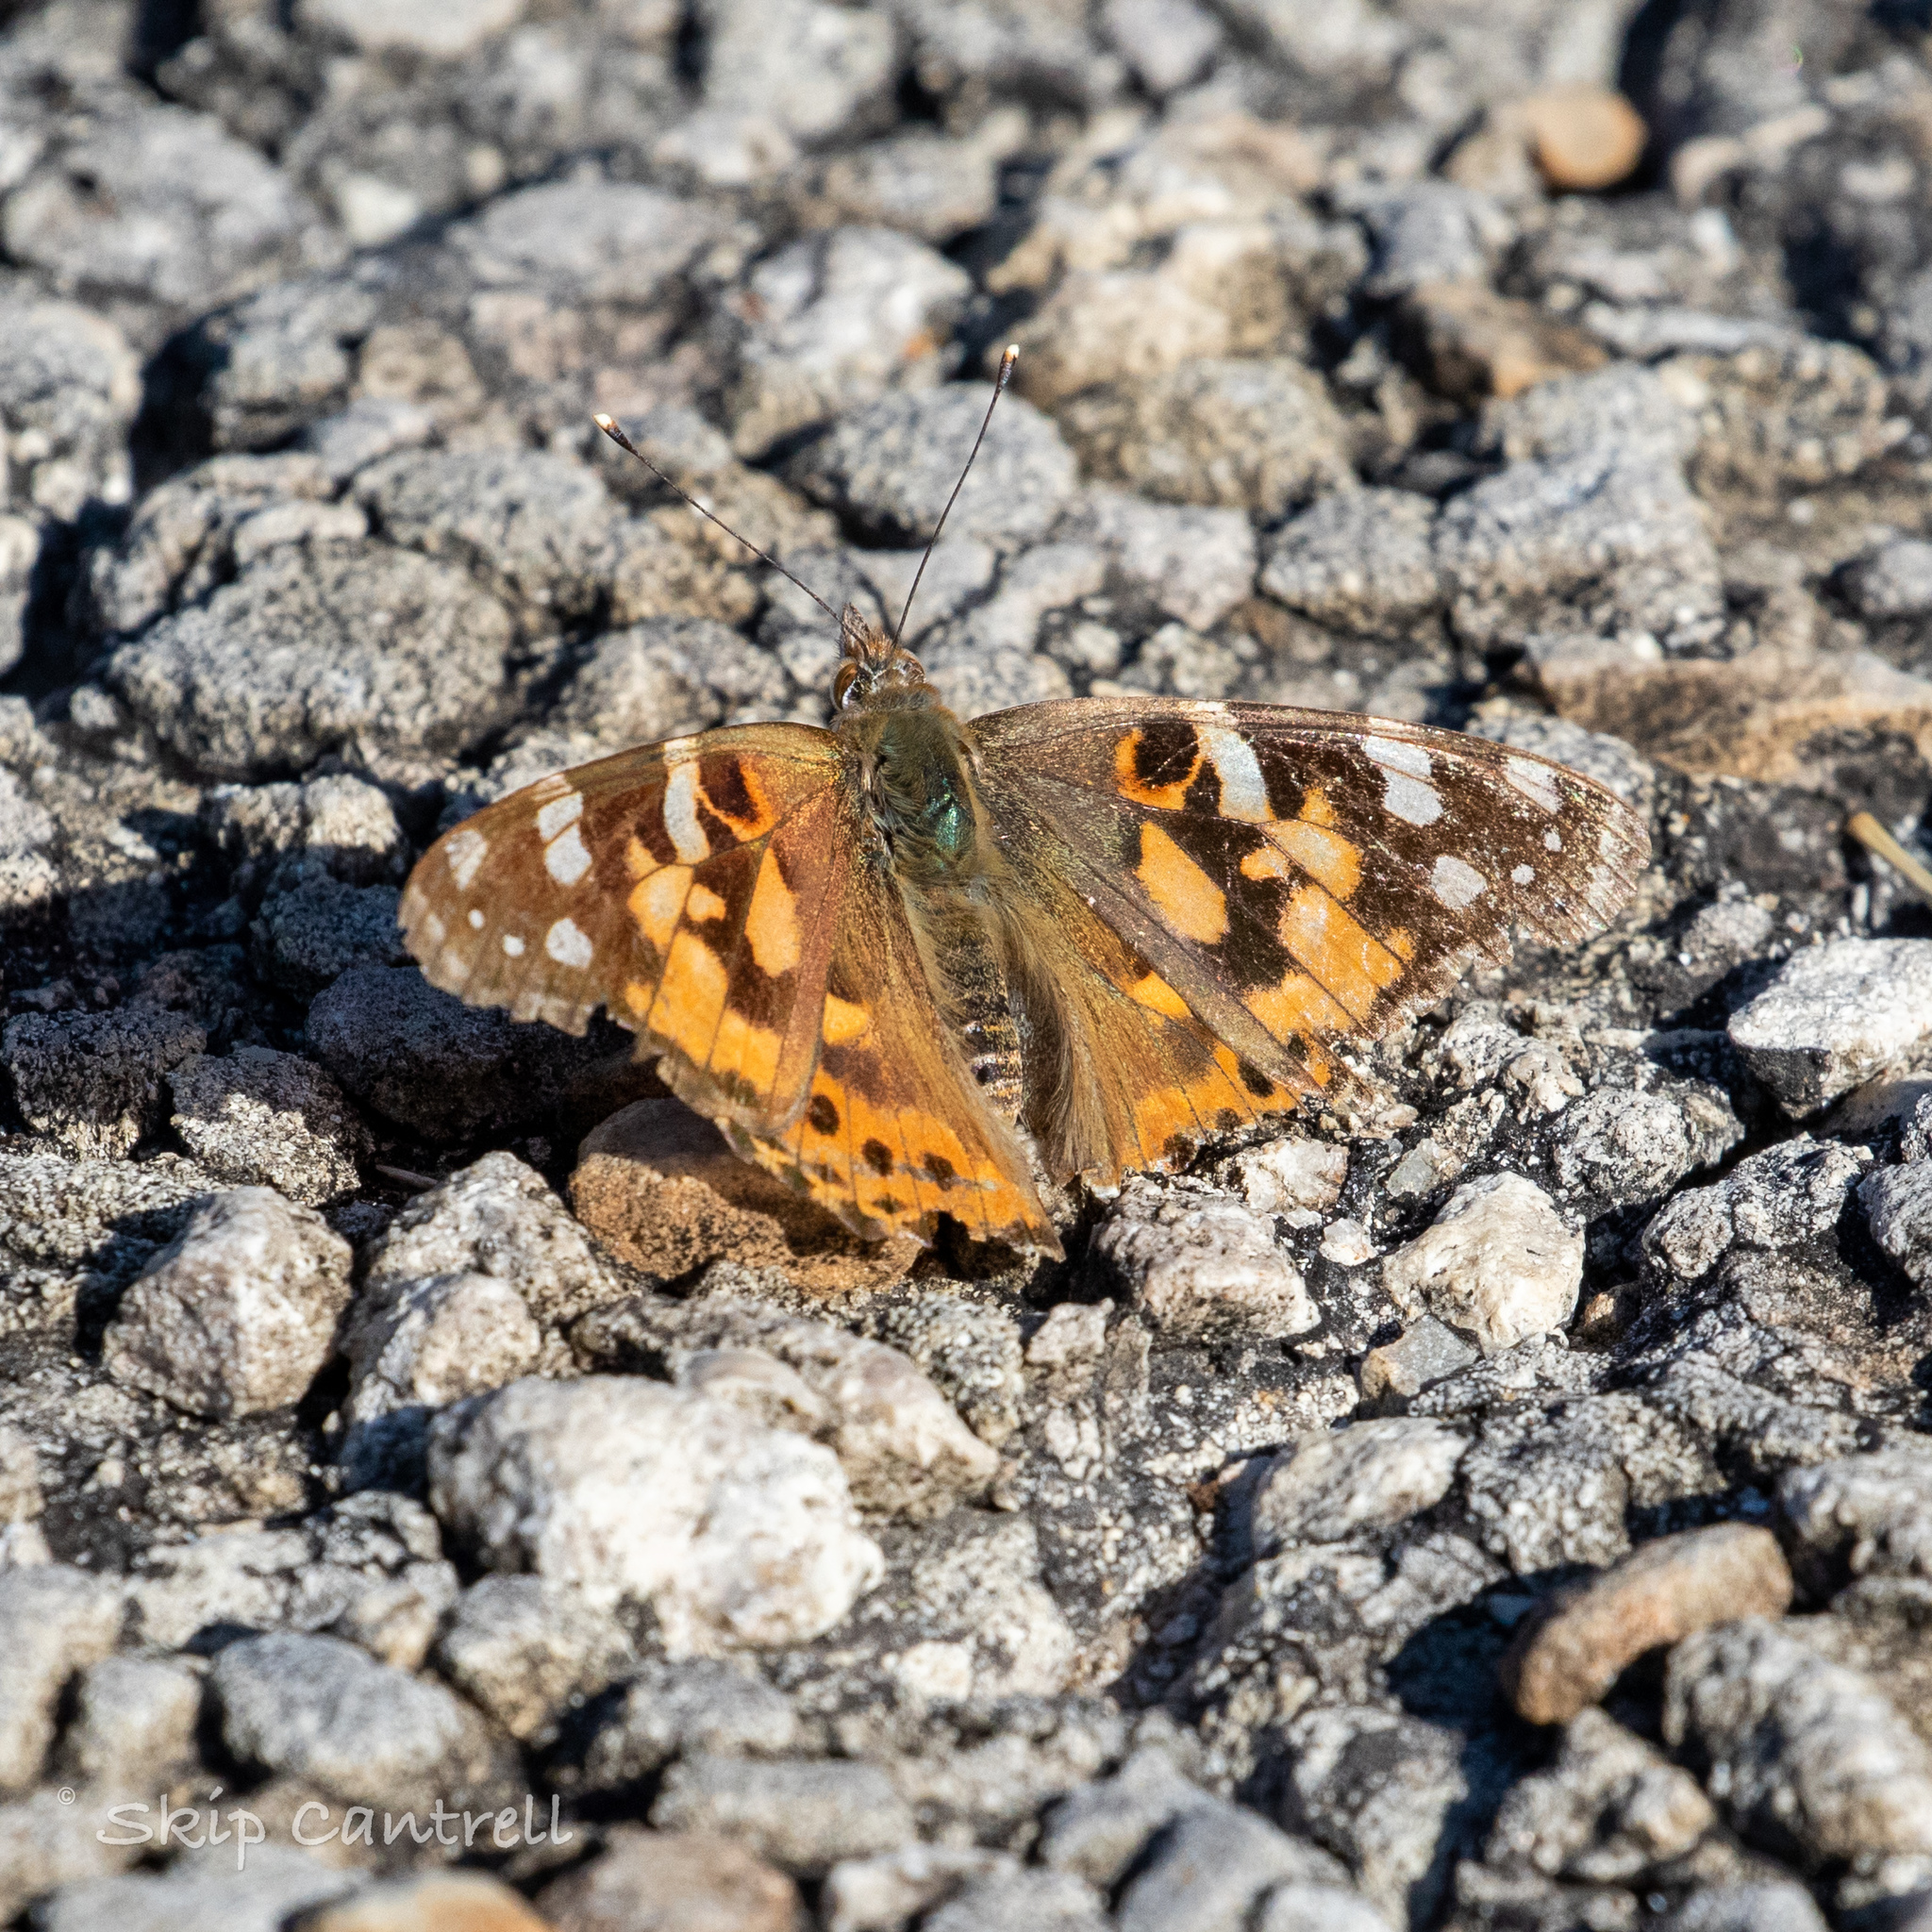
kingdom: Animalia
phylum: Arthropoda
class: Insecta
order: Lepidoptera
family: Nymphalidae
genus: Vanessa
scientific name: Vanessa cardui
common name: Painted lady
